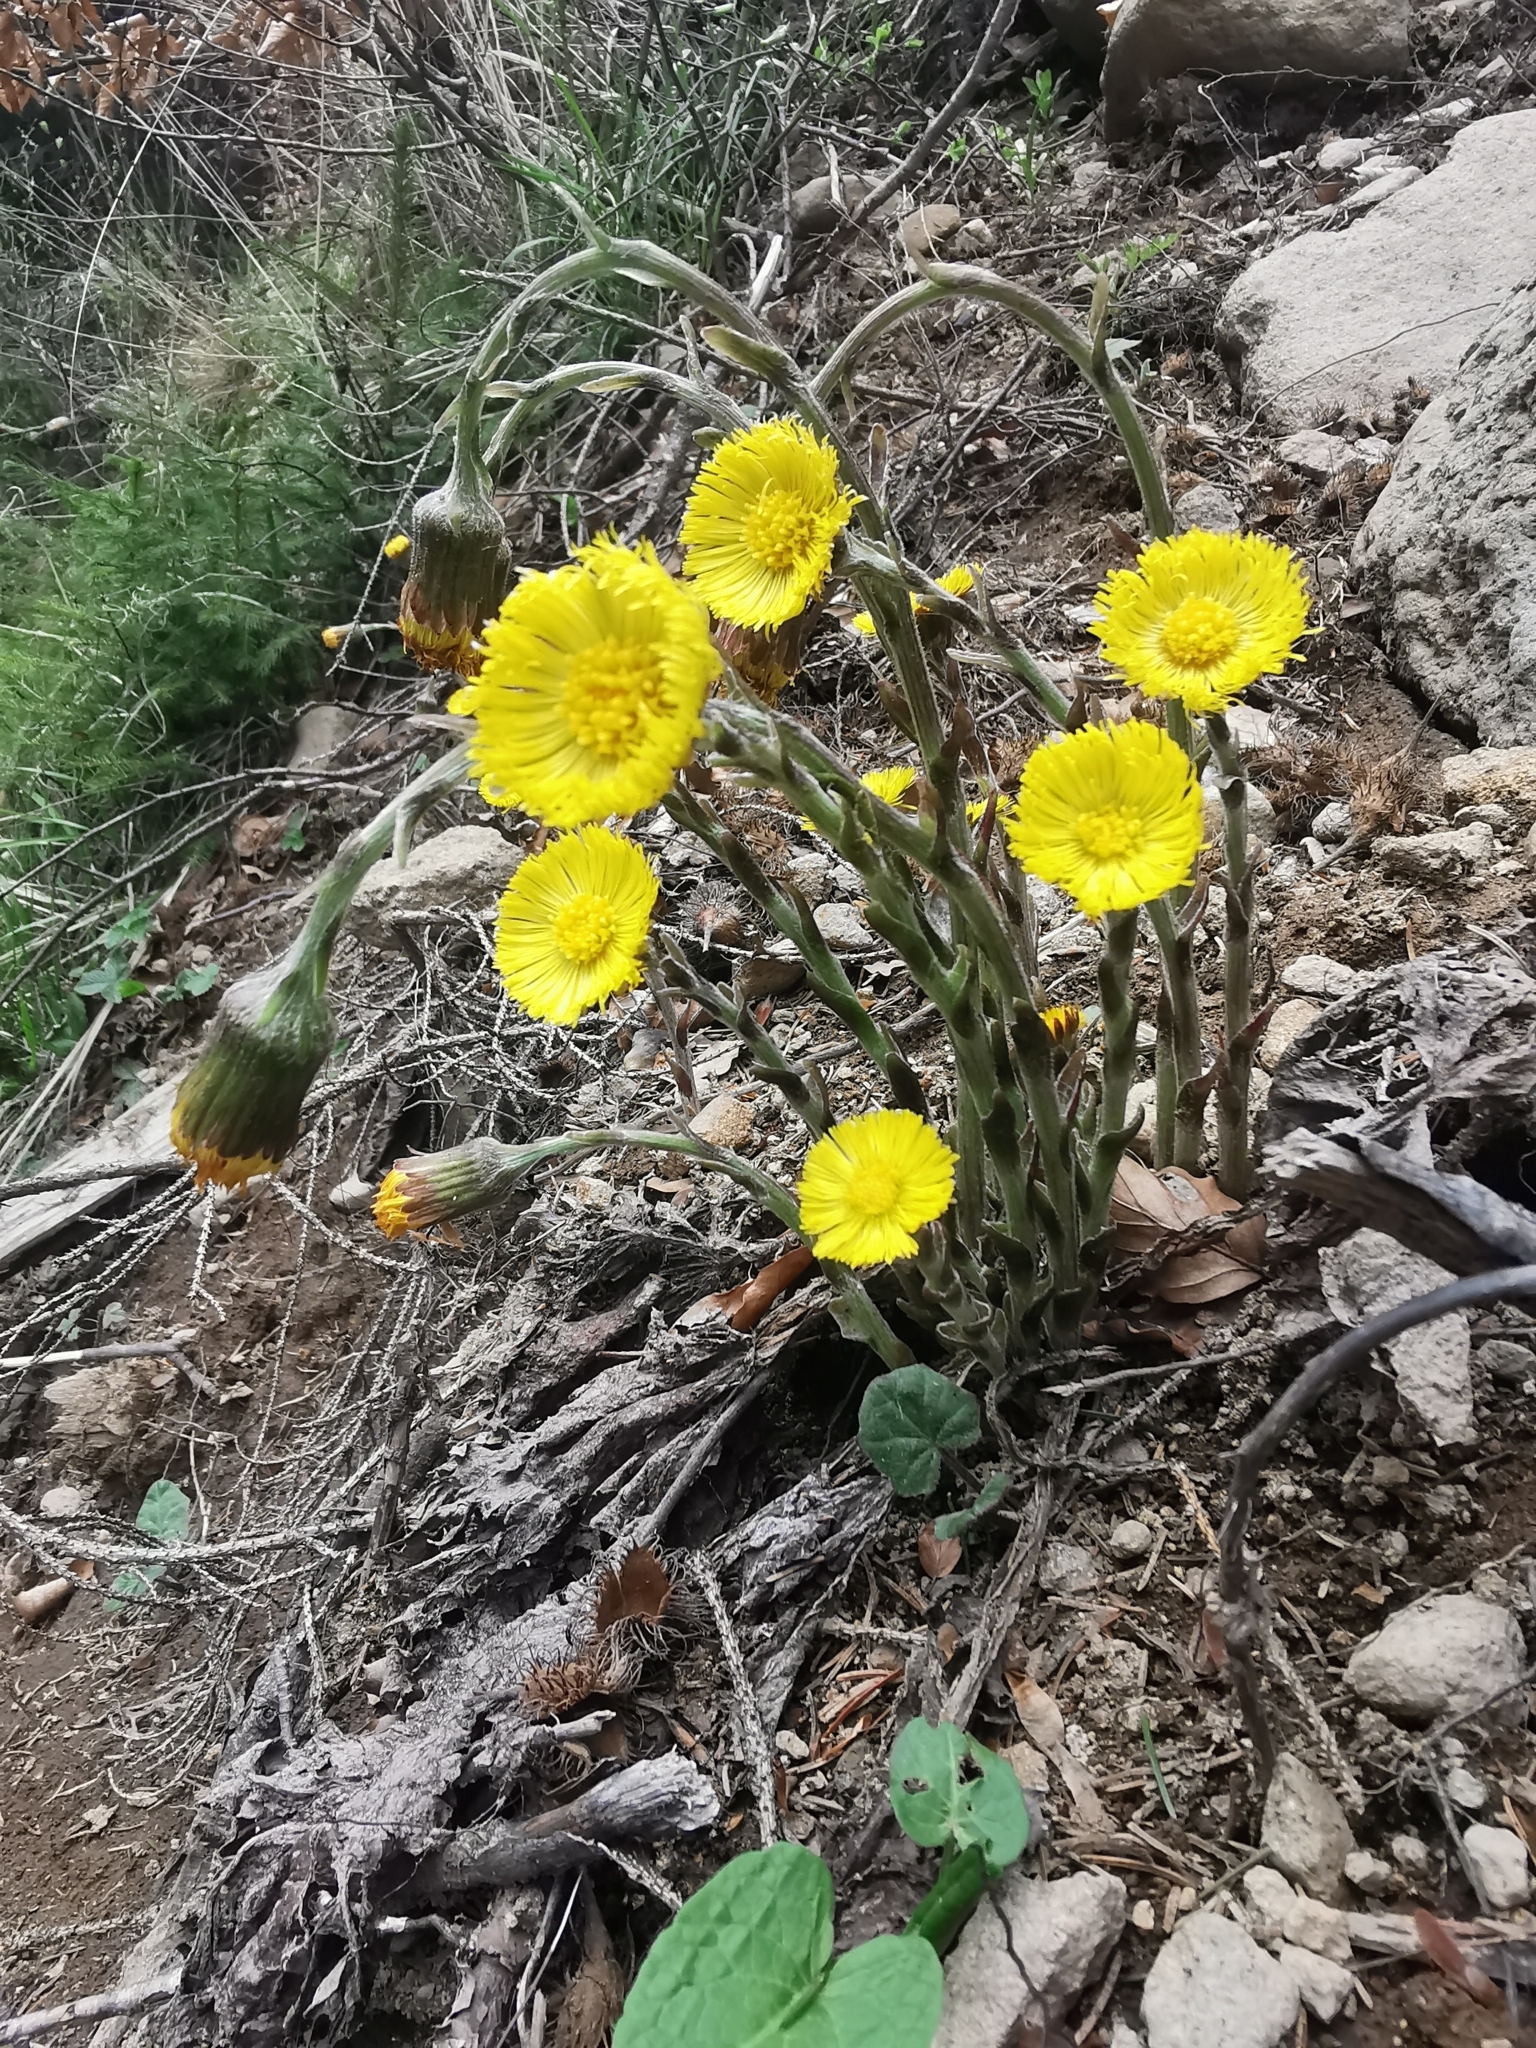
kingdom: Plantae
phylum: Tracheophyta
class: Magnoliopsida
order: Asterales
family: Asteraceae
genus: Tussilago
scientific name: Tussilago farfara
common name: Coltsfoot
